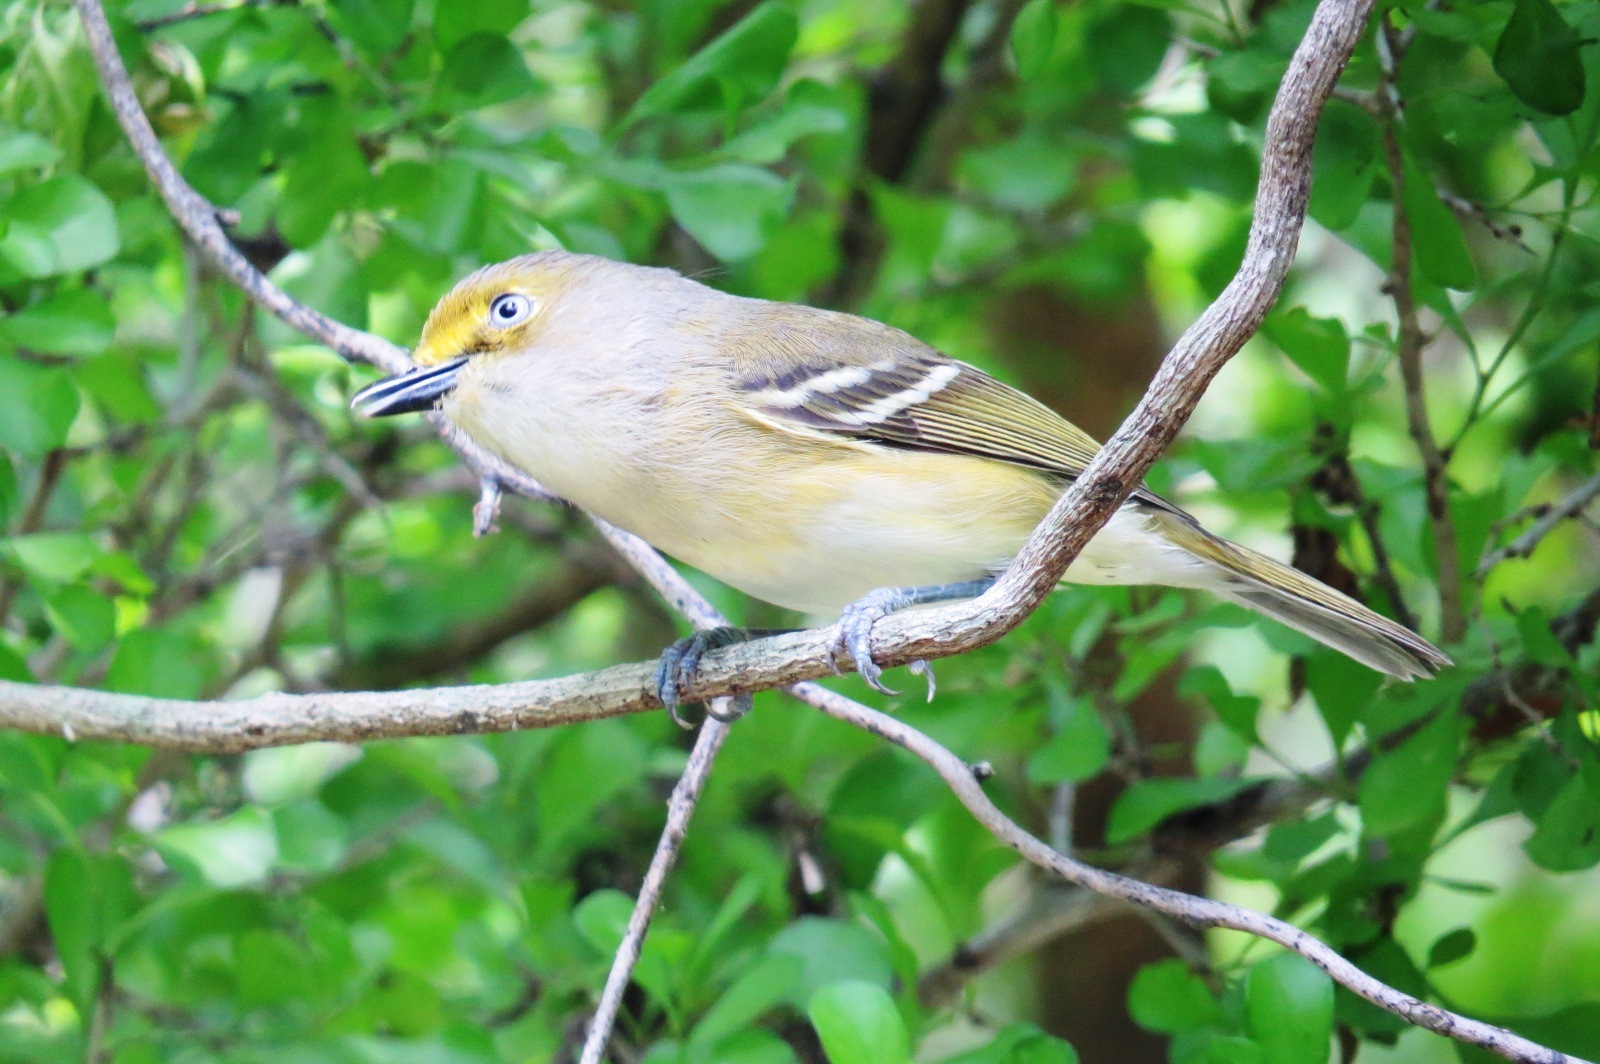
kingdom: Animalia
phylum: Chordata
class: Aves
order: Passeriformes
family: Vireonidae
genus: Vireo
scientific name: Vireo griseus
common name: White-eyed vireo
